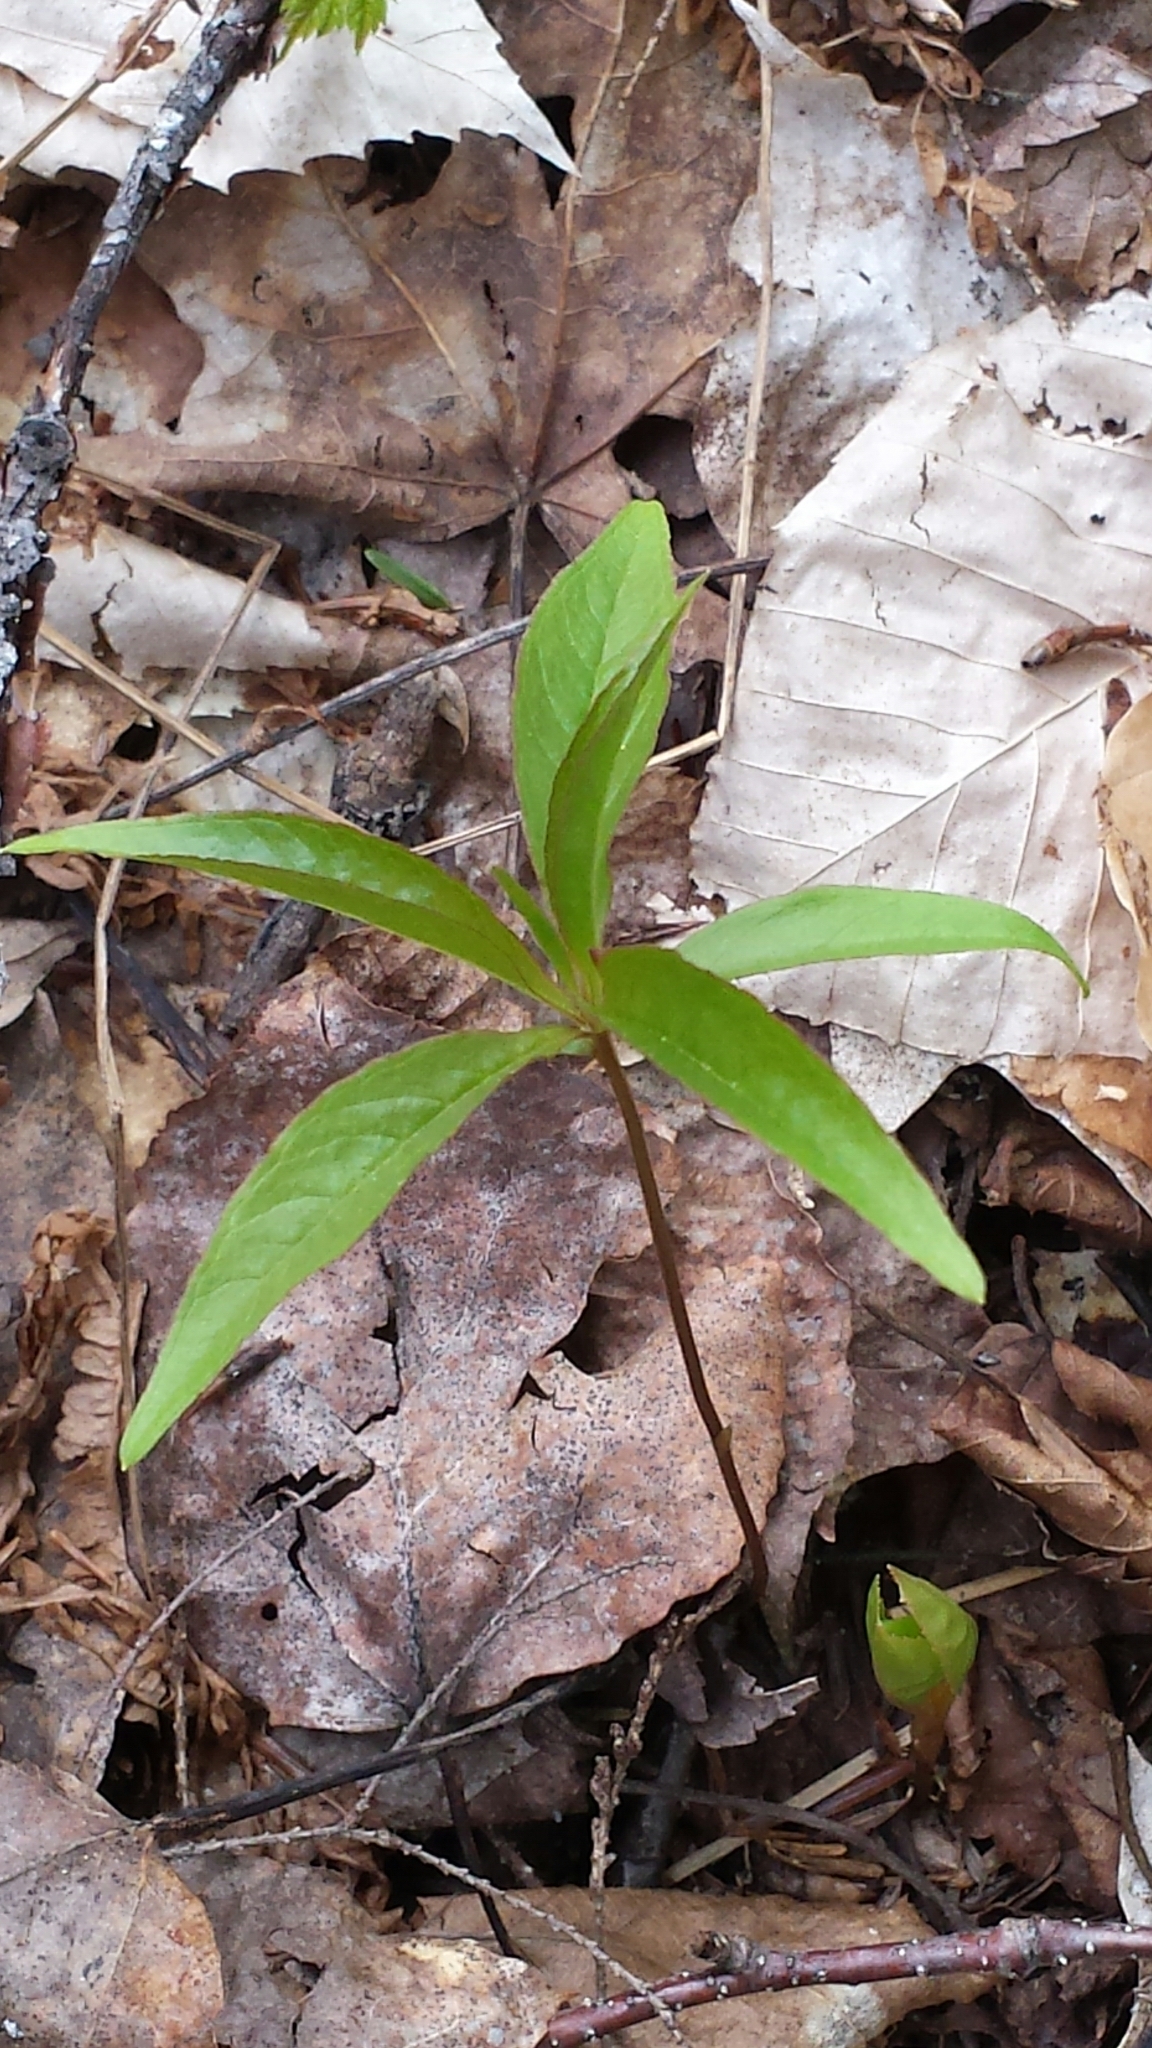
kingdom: Plantae
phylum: Tracheophyta
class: Magnoliopsida
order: Ericales
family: Primulaceae
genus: Lysimachia
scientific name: Lysimachia borealis
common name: American starflower
